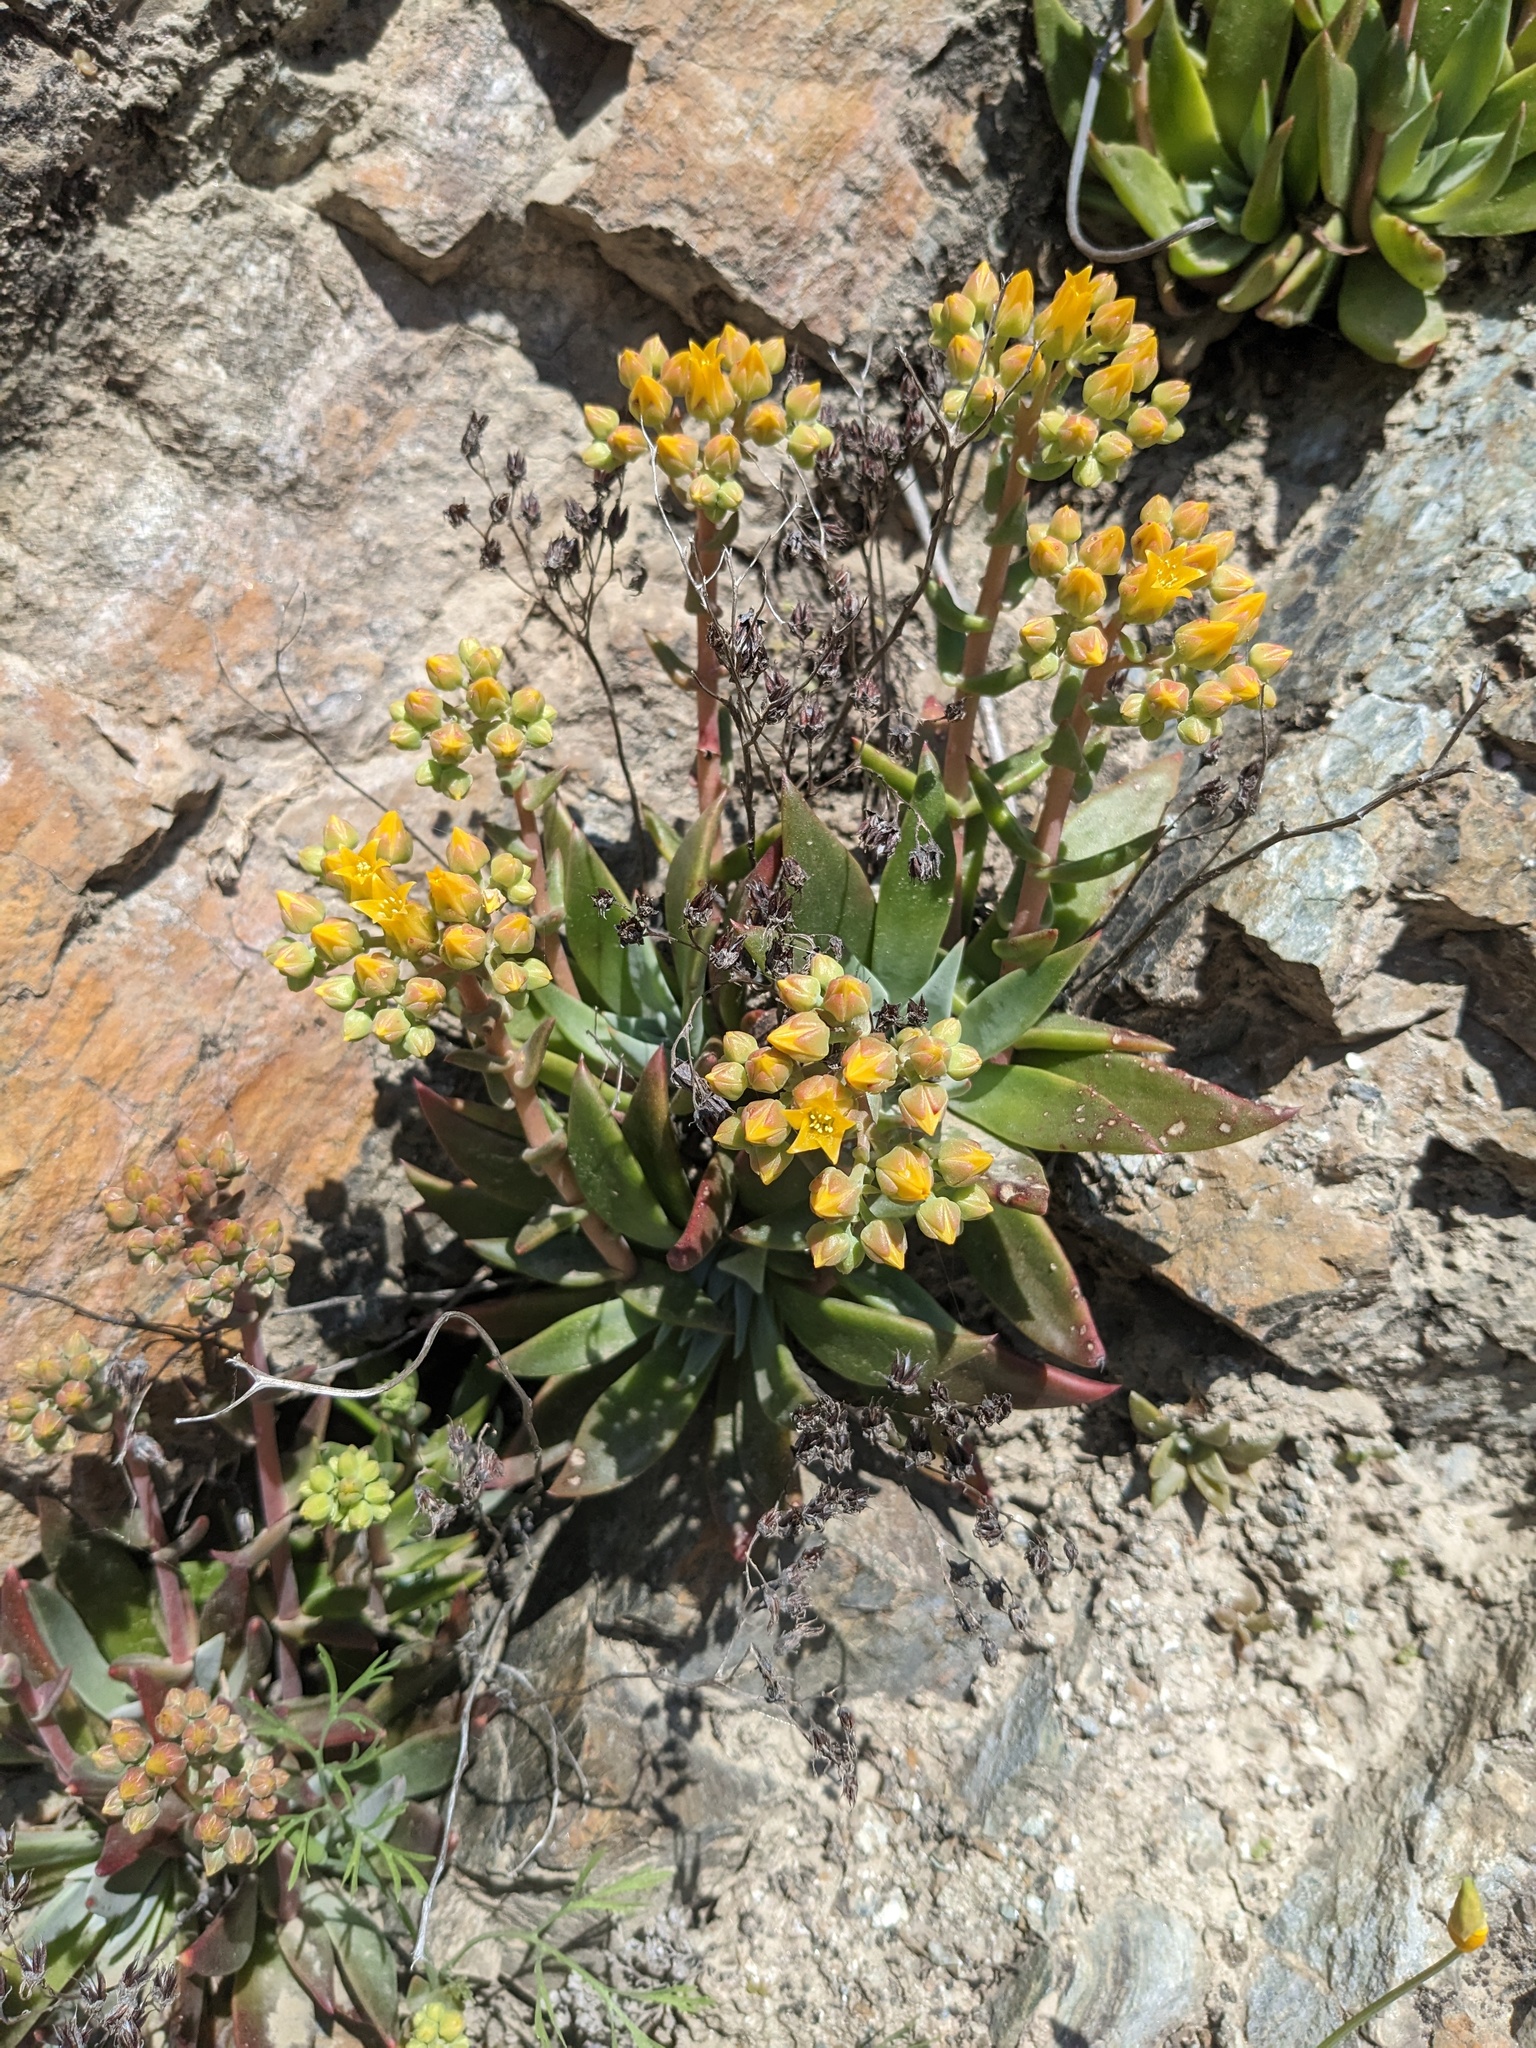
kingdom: Plantae
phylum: Tracheophyta
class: Magnoliopsida
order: Saxifragales
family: Crassulaceae
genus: Dudleya
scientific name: Dudleya cymosa
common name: Canyon dudleya
